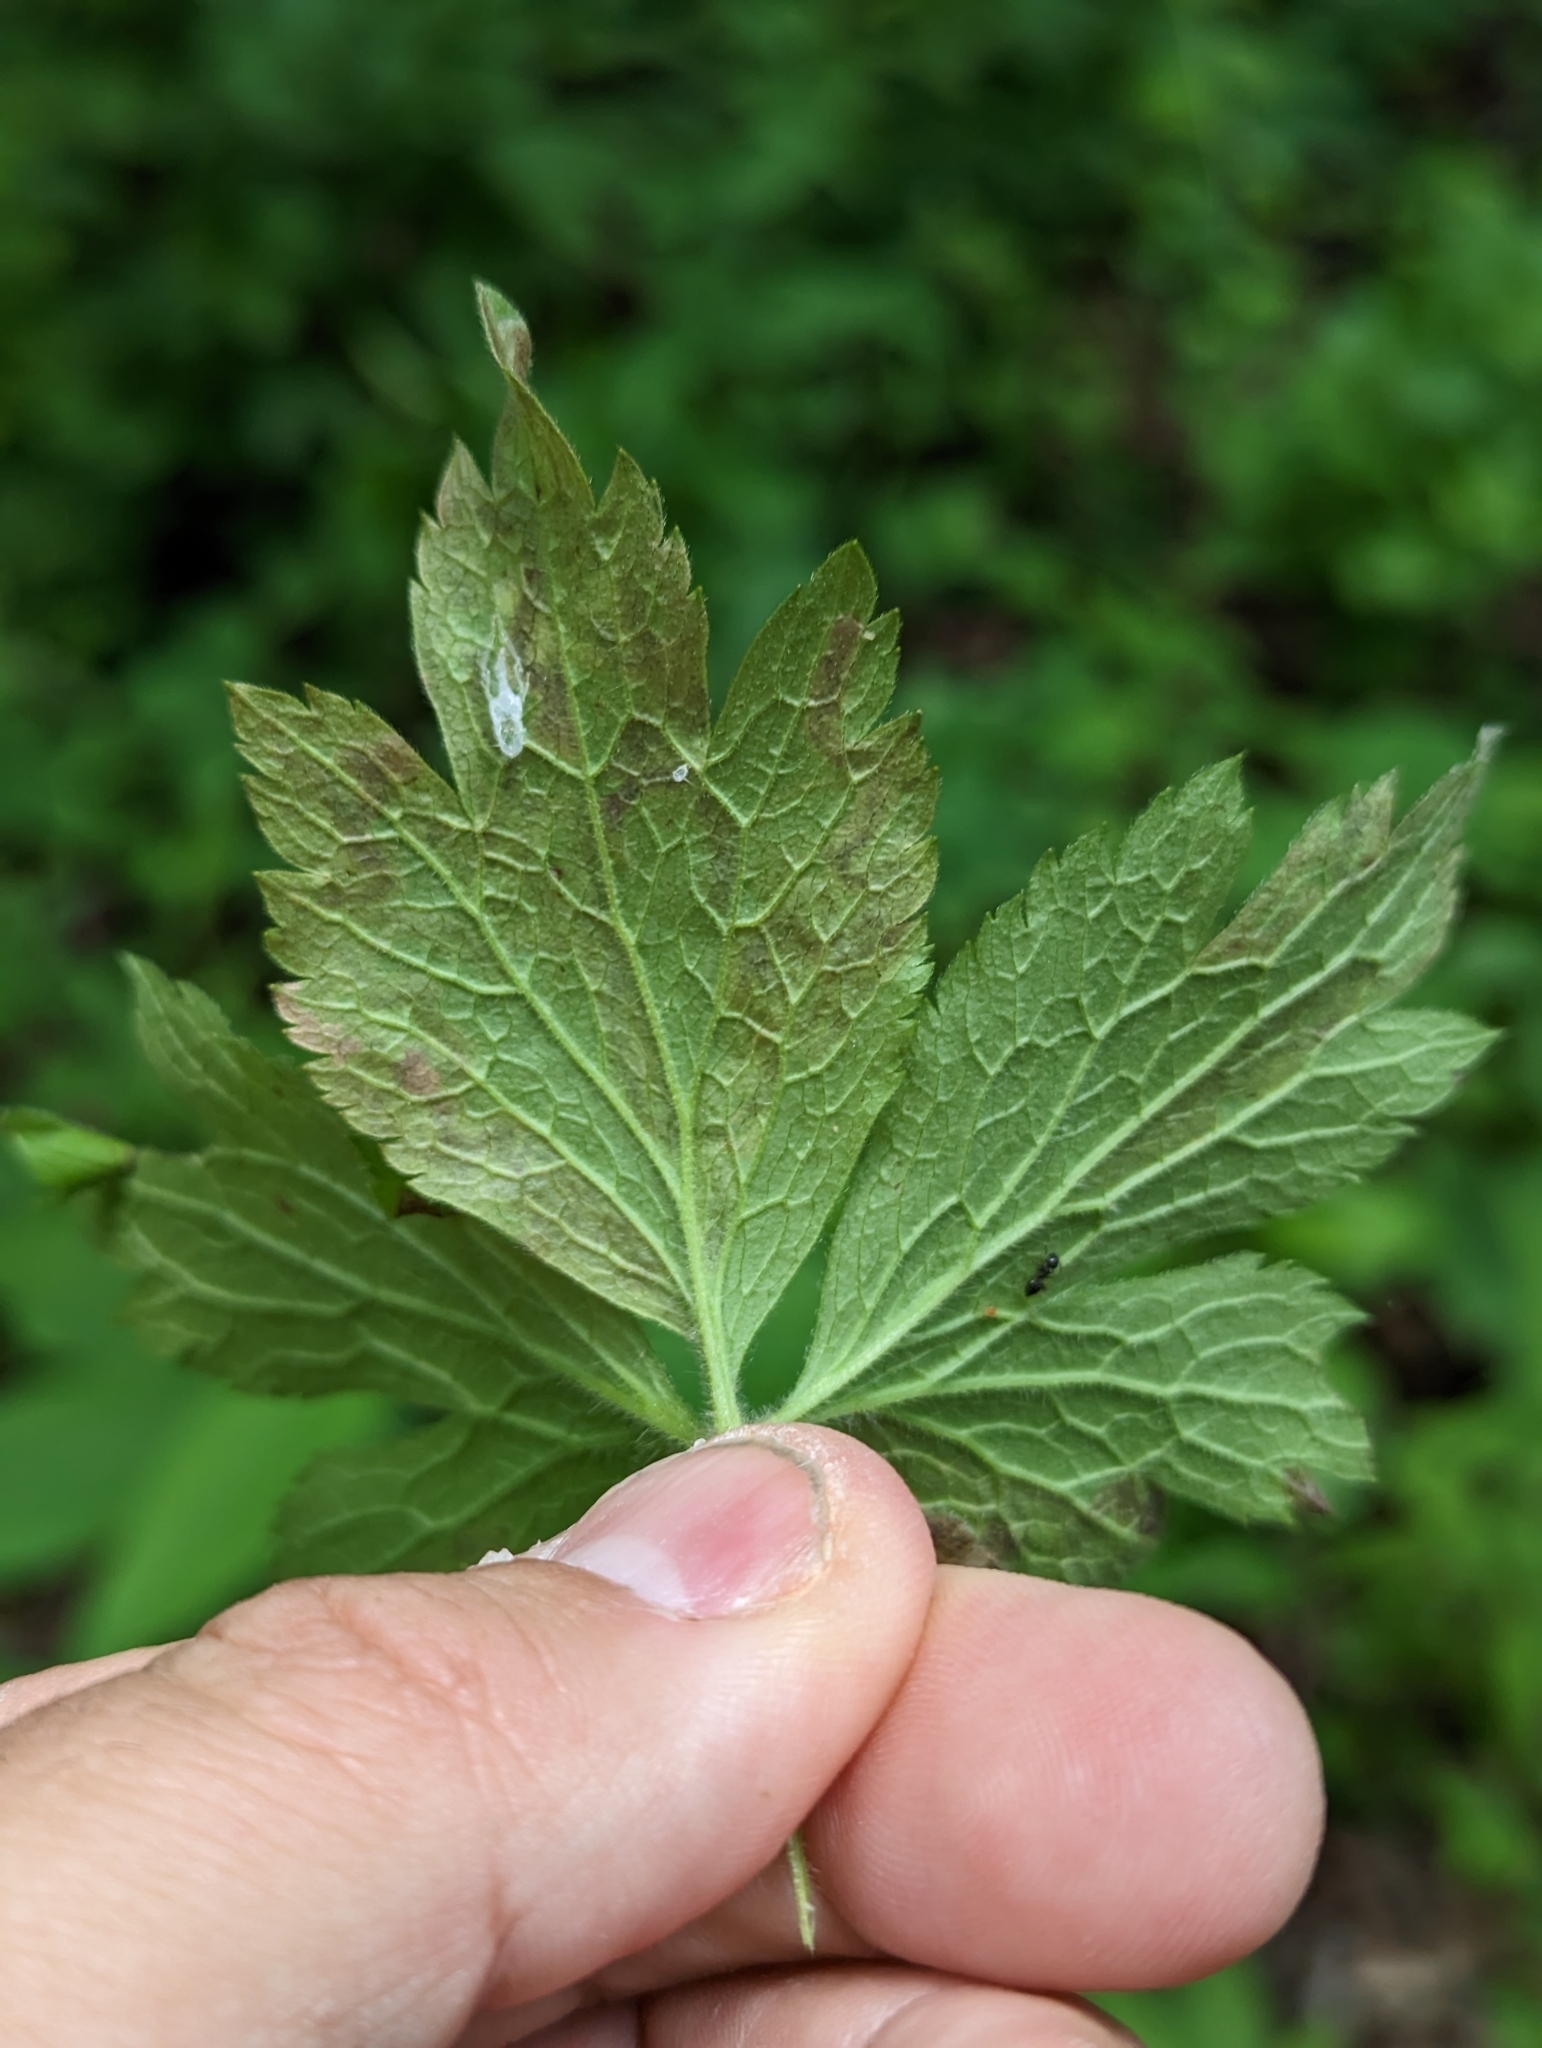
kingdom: Animalia
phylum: Arthropoda
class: Insecta
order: Diptera
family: Agromyzidae
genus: Phytomyza
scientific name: Phytomyza saniculae
